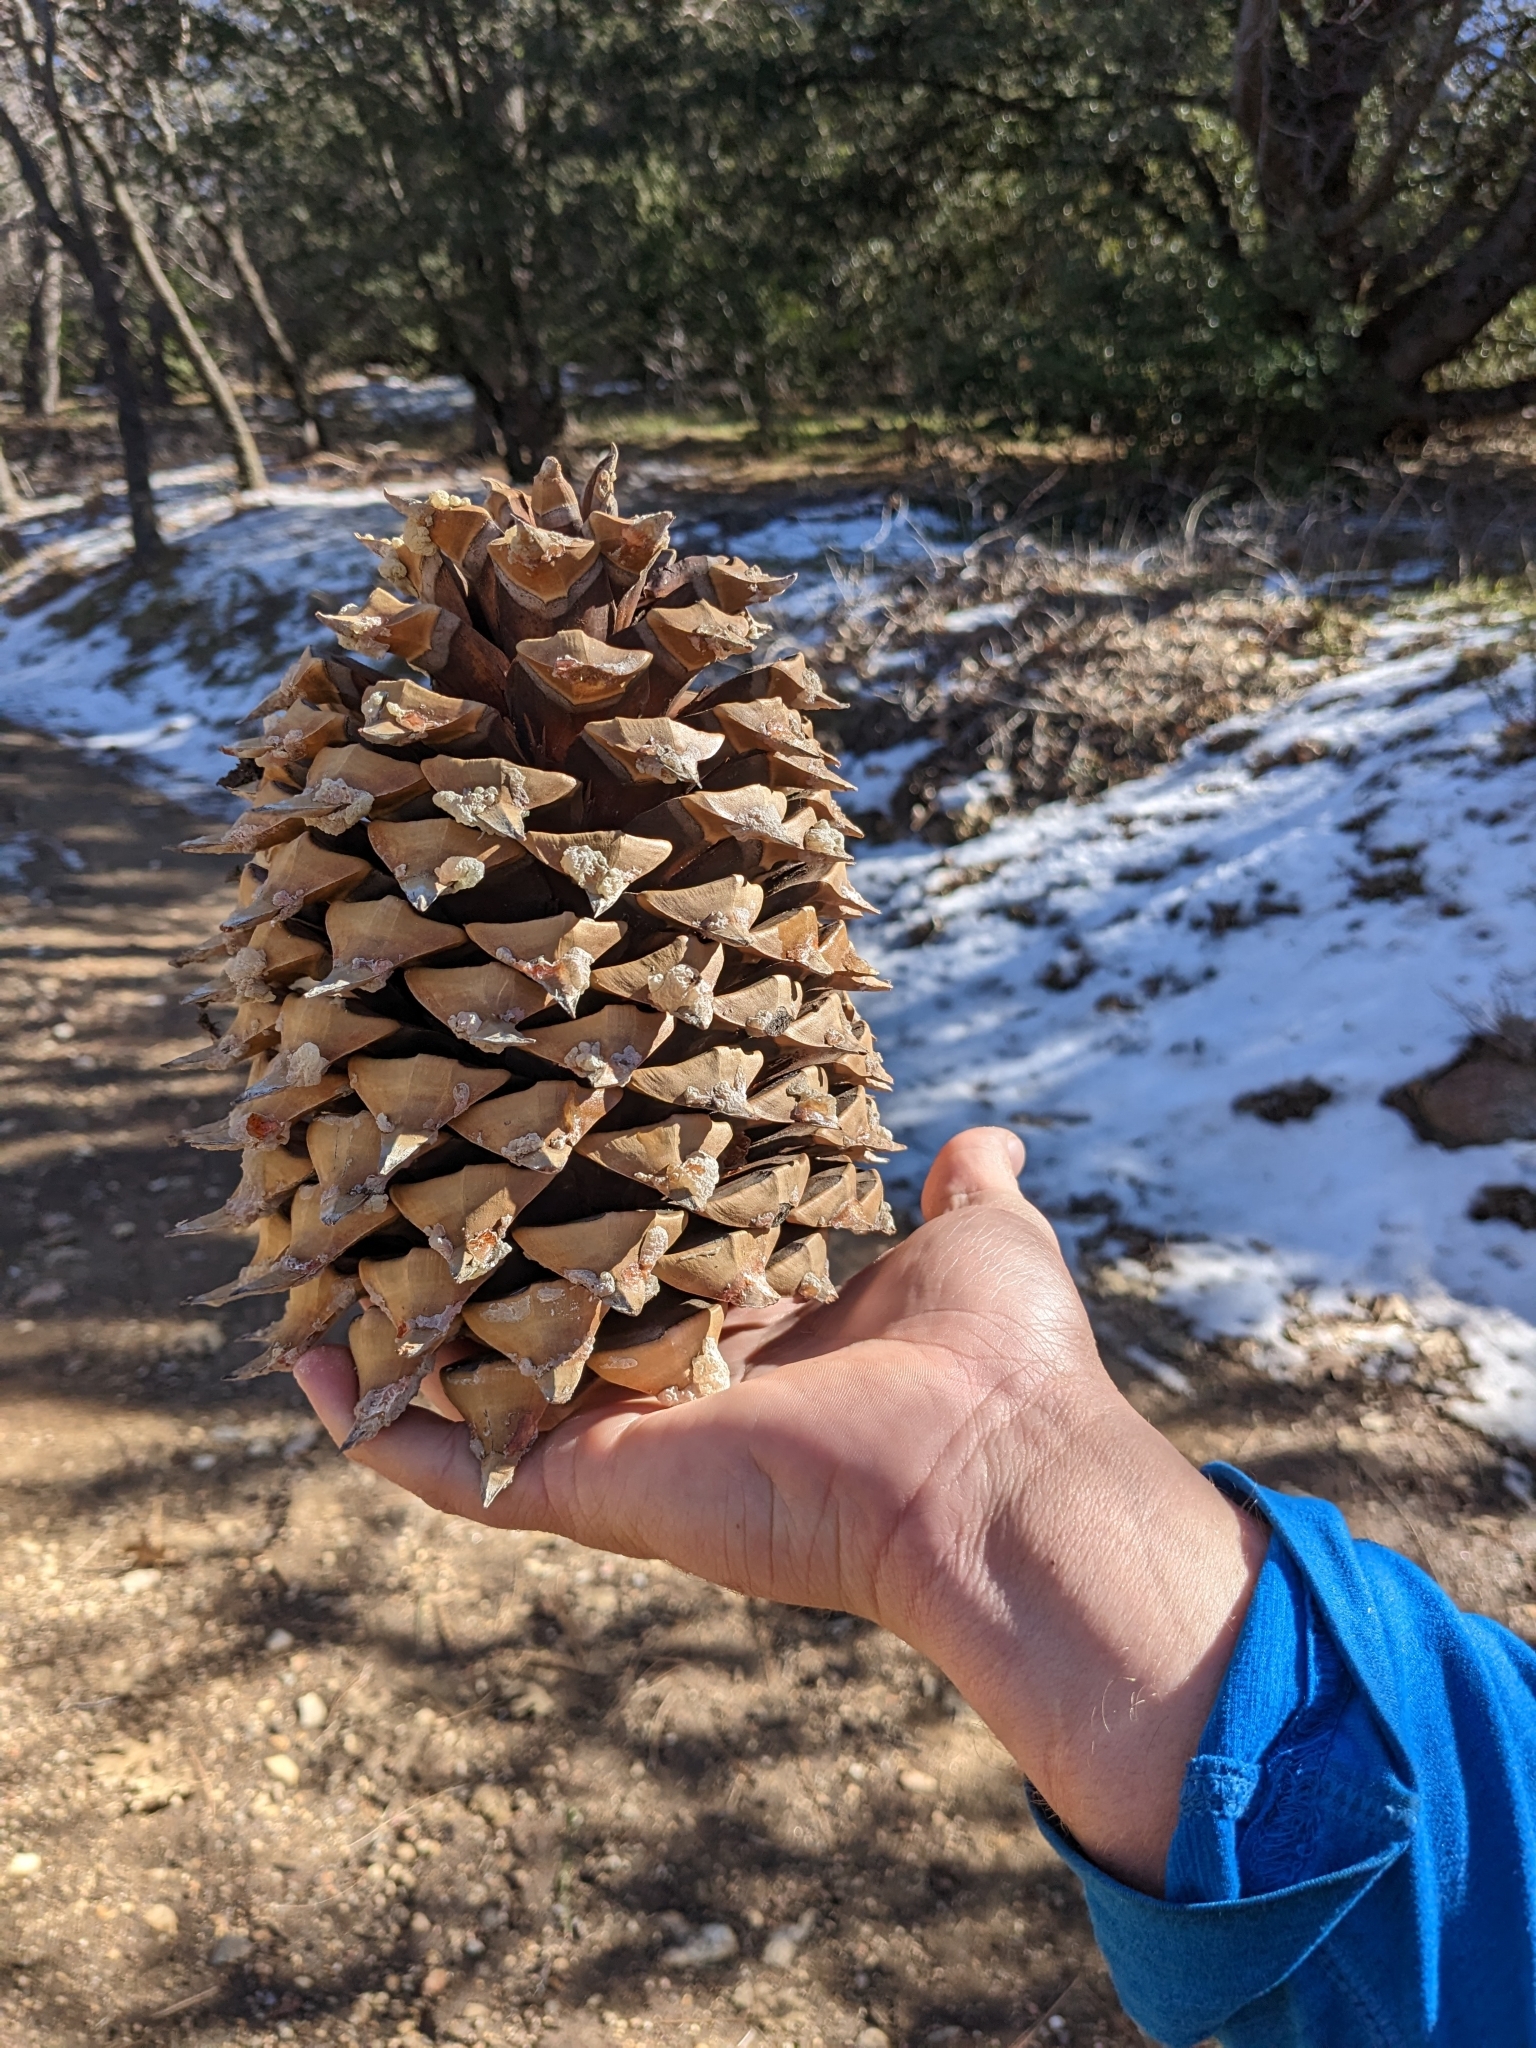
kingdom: Plantae
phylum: Tracheophyta
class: Pinopsida
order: Pinales
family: Pinaceae
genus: Pinus
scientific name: Pinus coulteri
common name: Coulter pine
